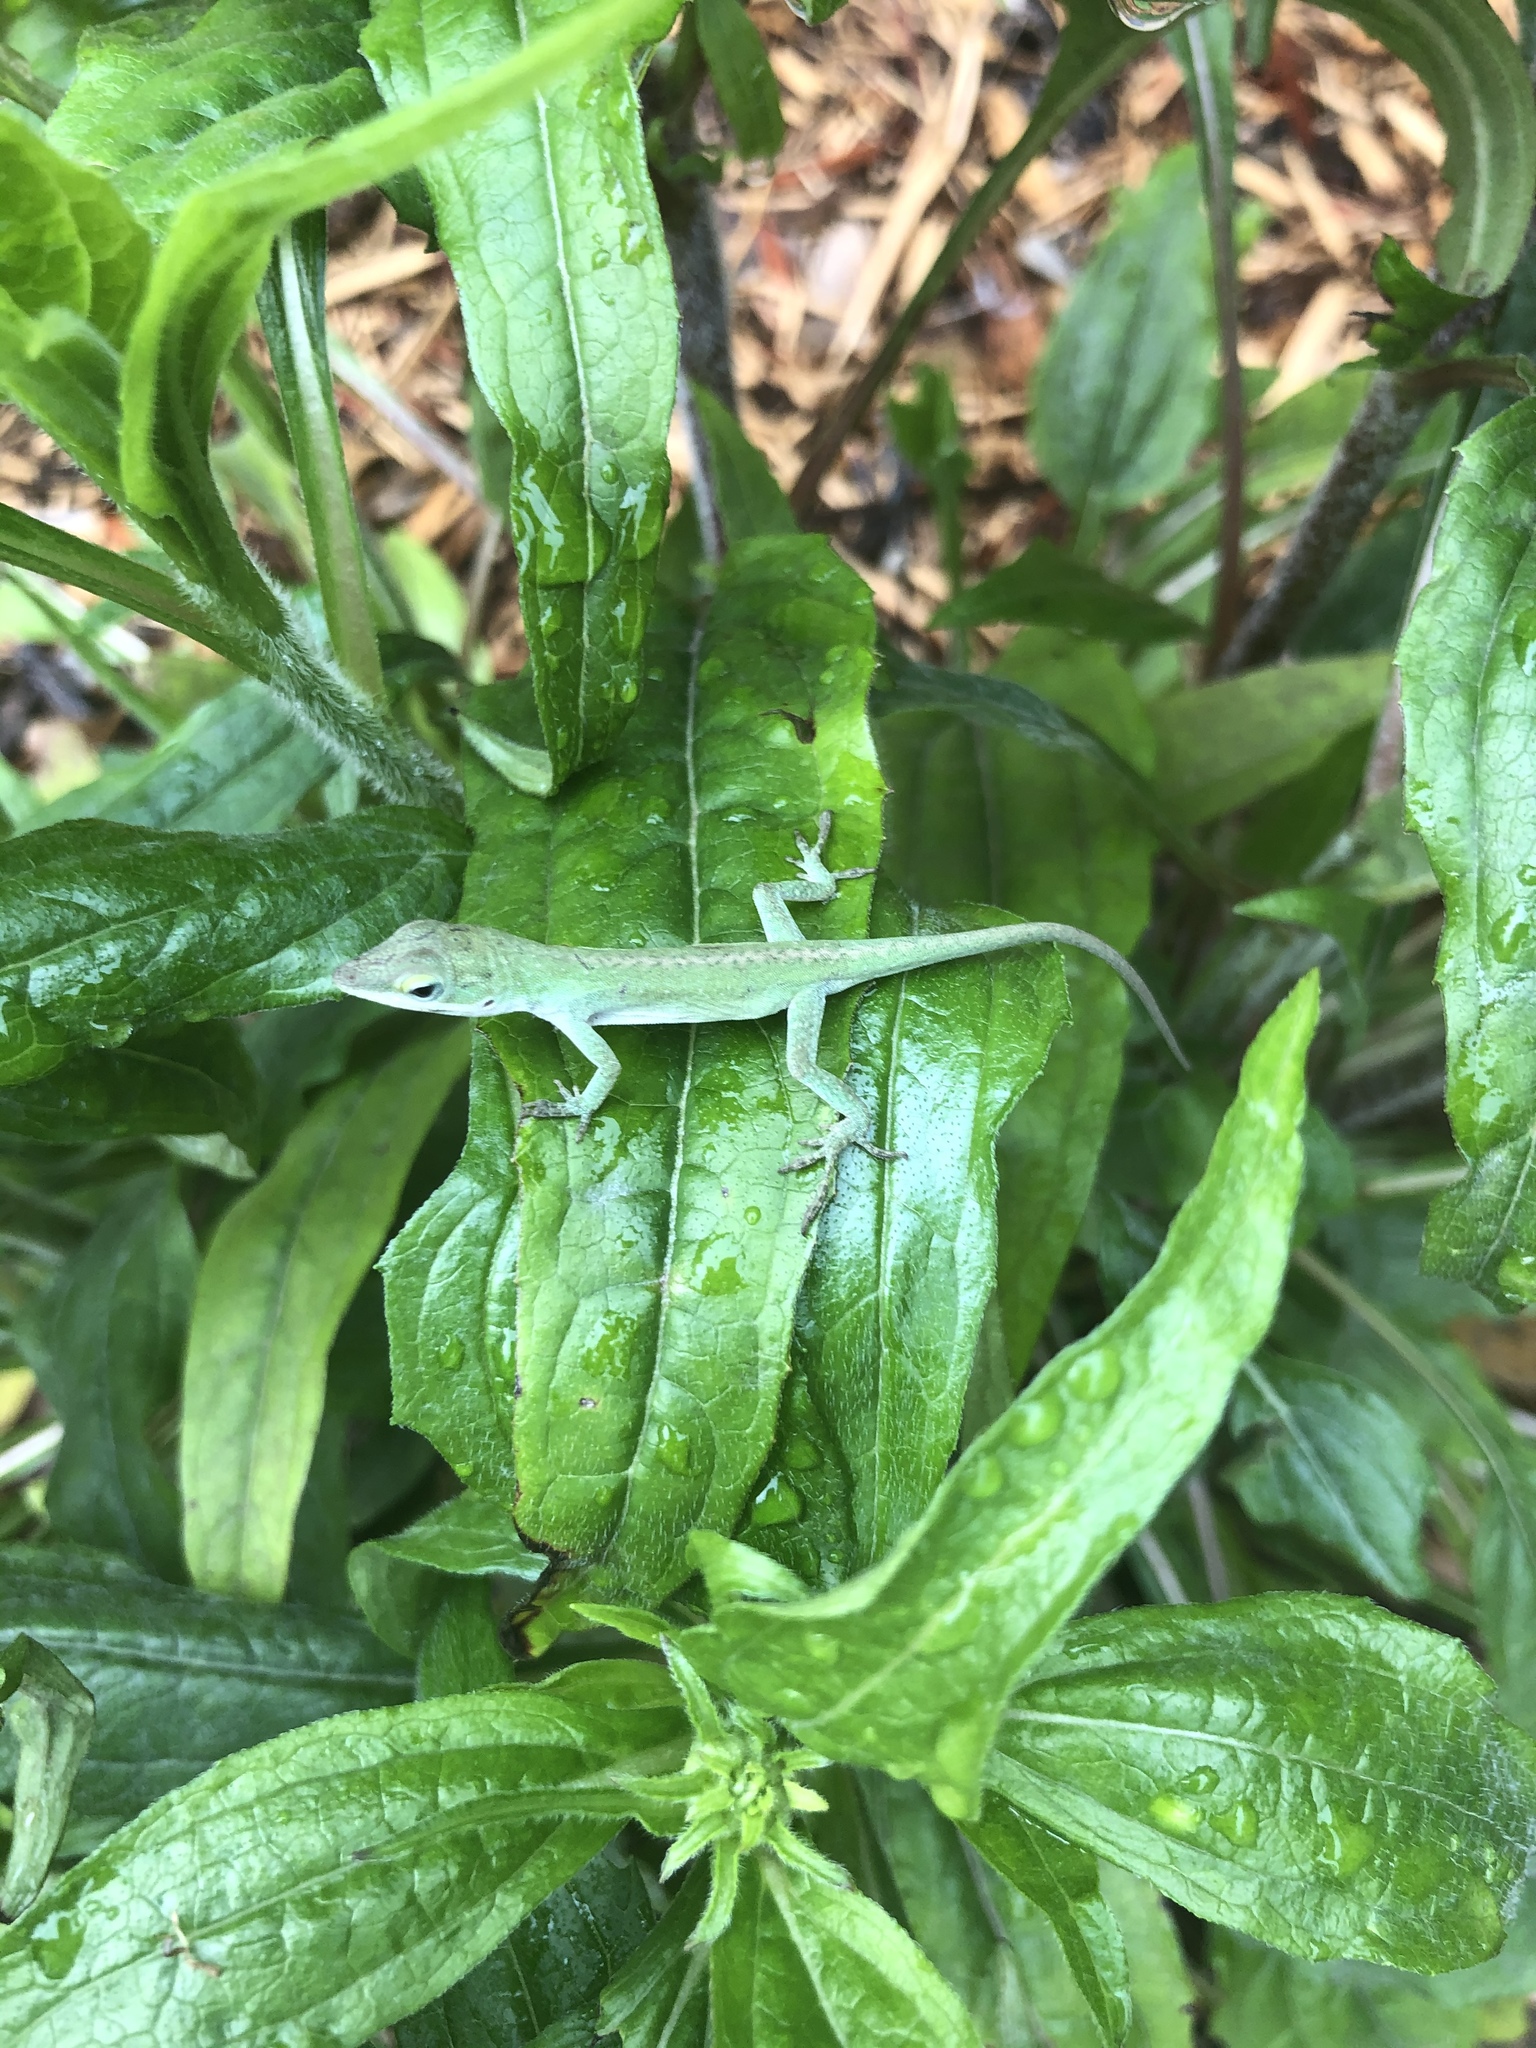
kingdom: Animalia
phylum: Chordata
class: Squamata
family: Dactyloidae
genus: Anolis
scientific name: Anolis carolinensis
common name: Green anole
